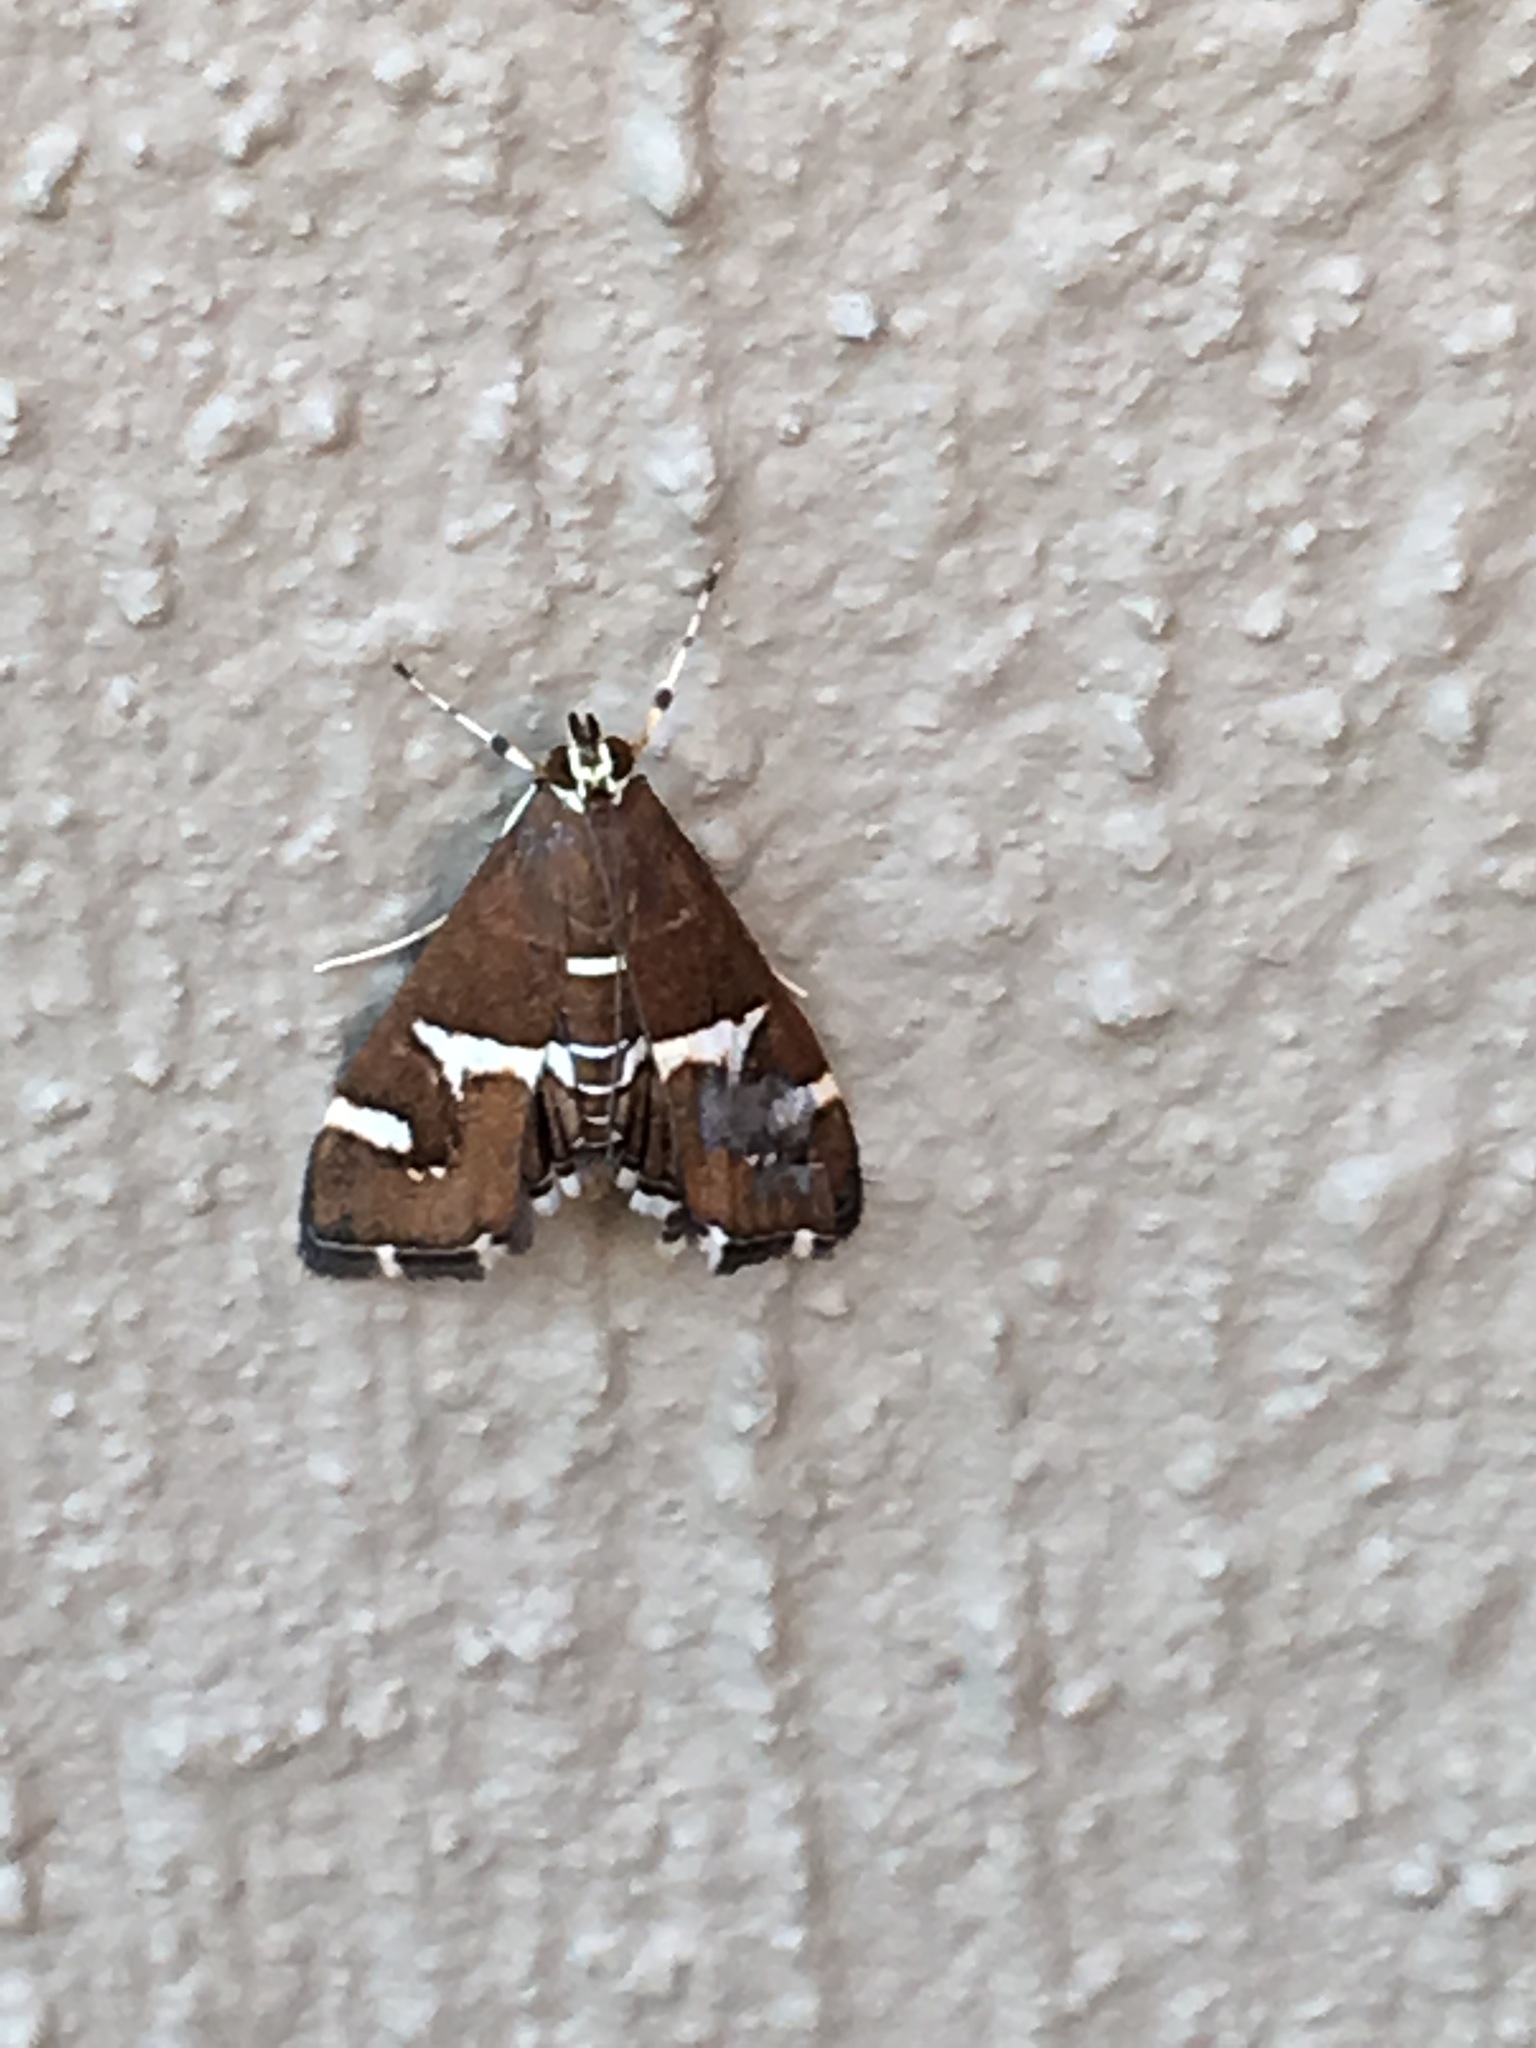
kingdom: Animalia
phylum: Arthropoda
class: Insecta
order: Lepidoptera
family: Crambidae
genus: Spoladea
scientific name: Spoladea recurvalis
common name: Beet webworm moth
